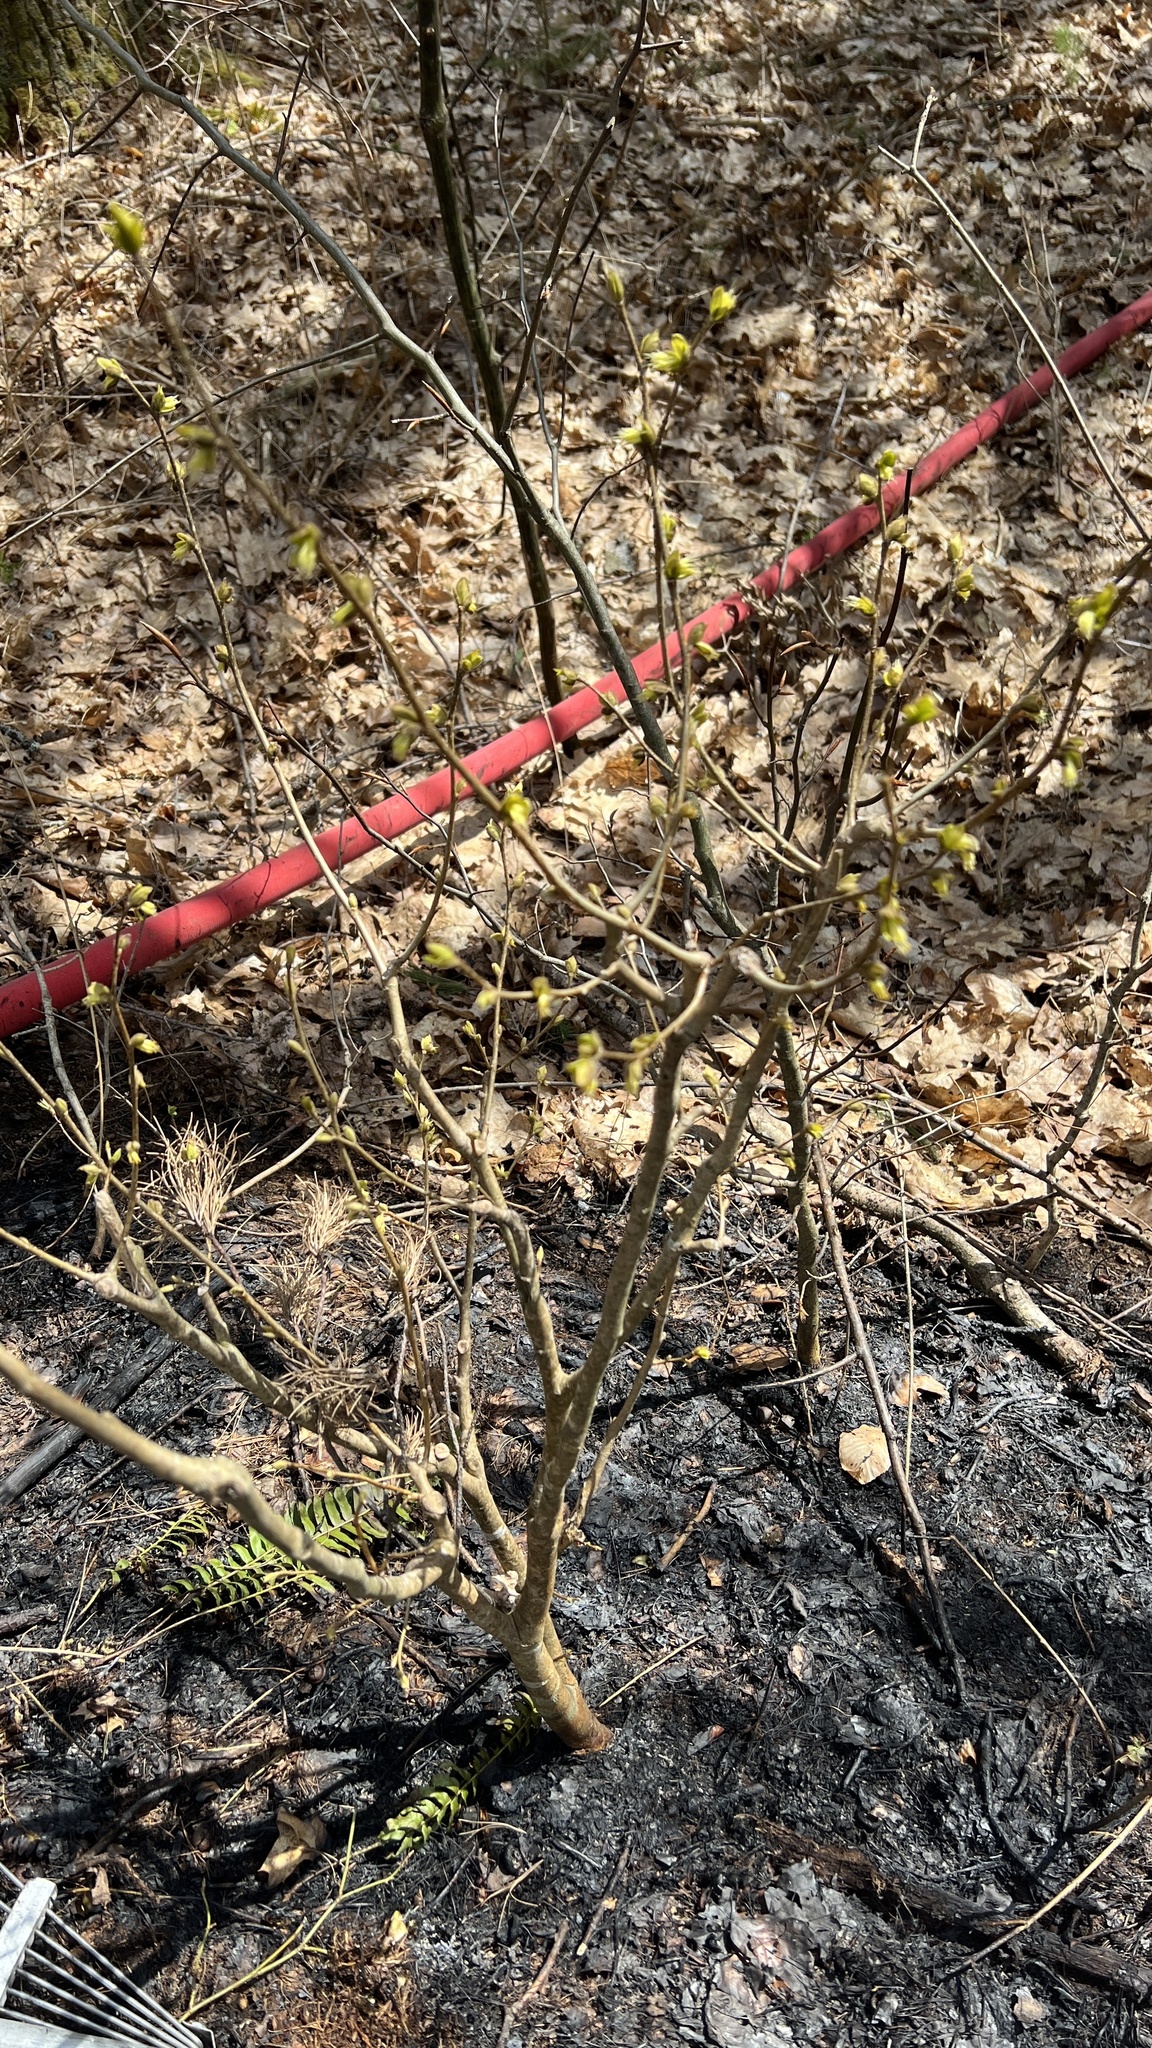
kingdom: Plantae
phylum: Tracheophyta
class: Magnoliopsida
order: Malvales
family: Thymelaeaceae
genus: Dirca
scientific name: Dirca palustris
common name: Leatherwood
